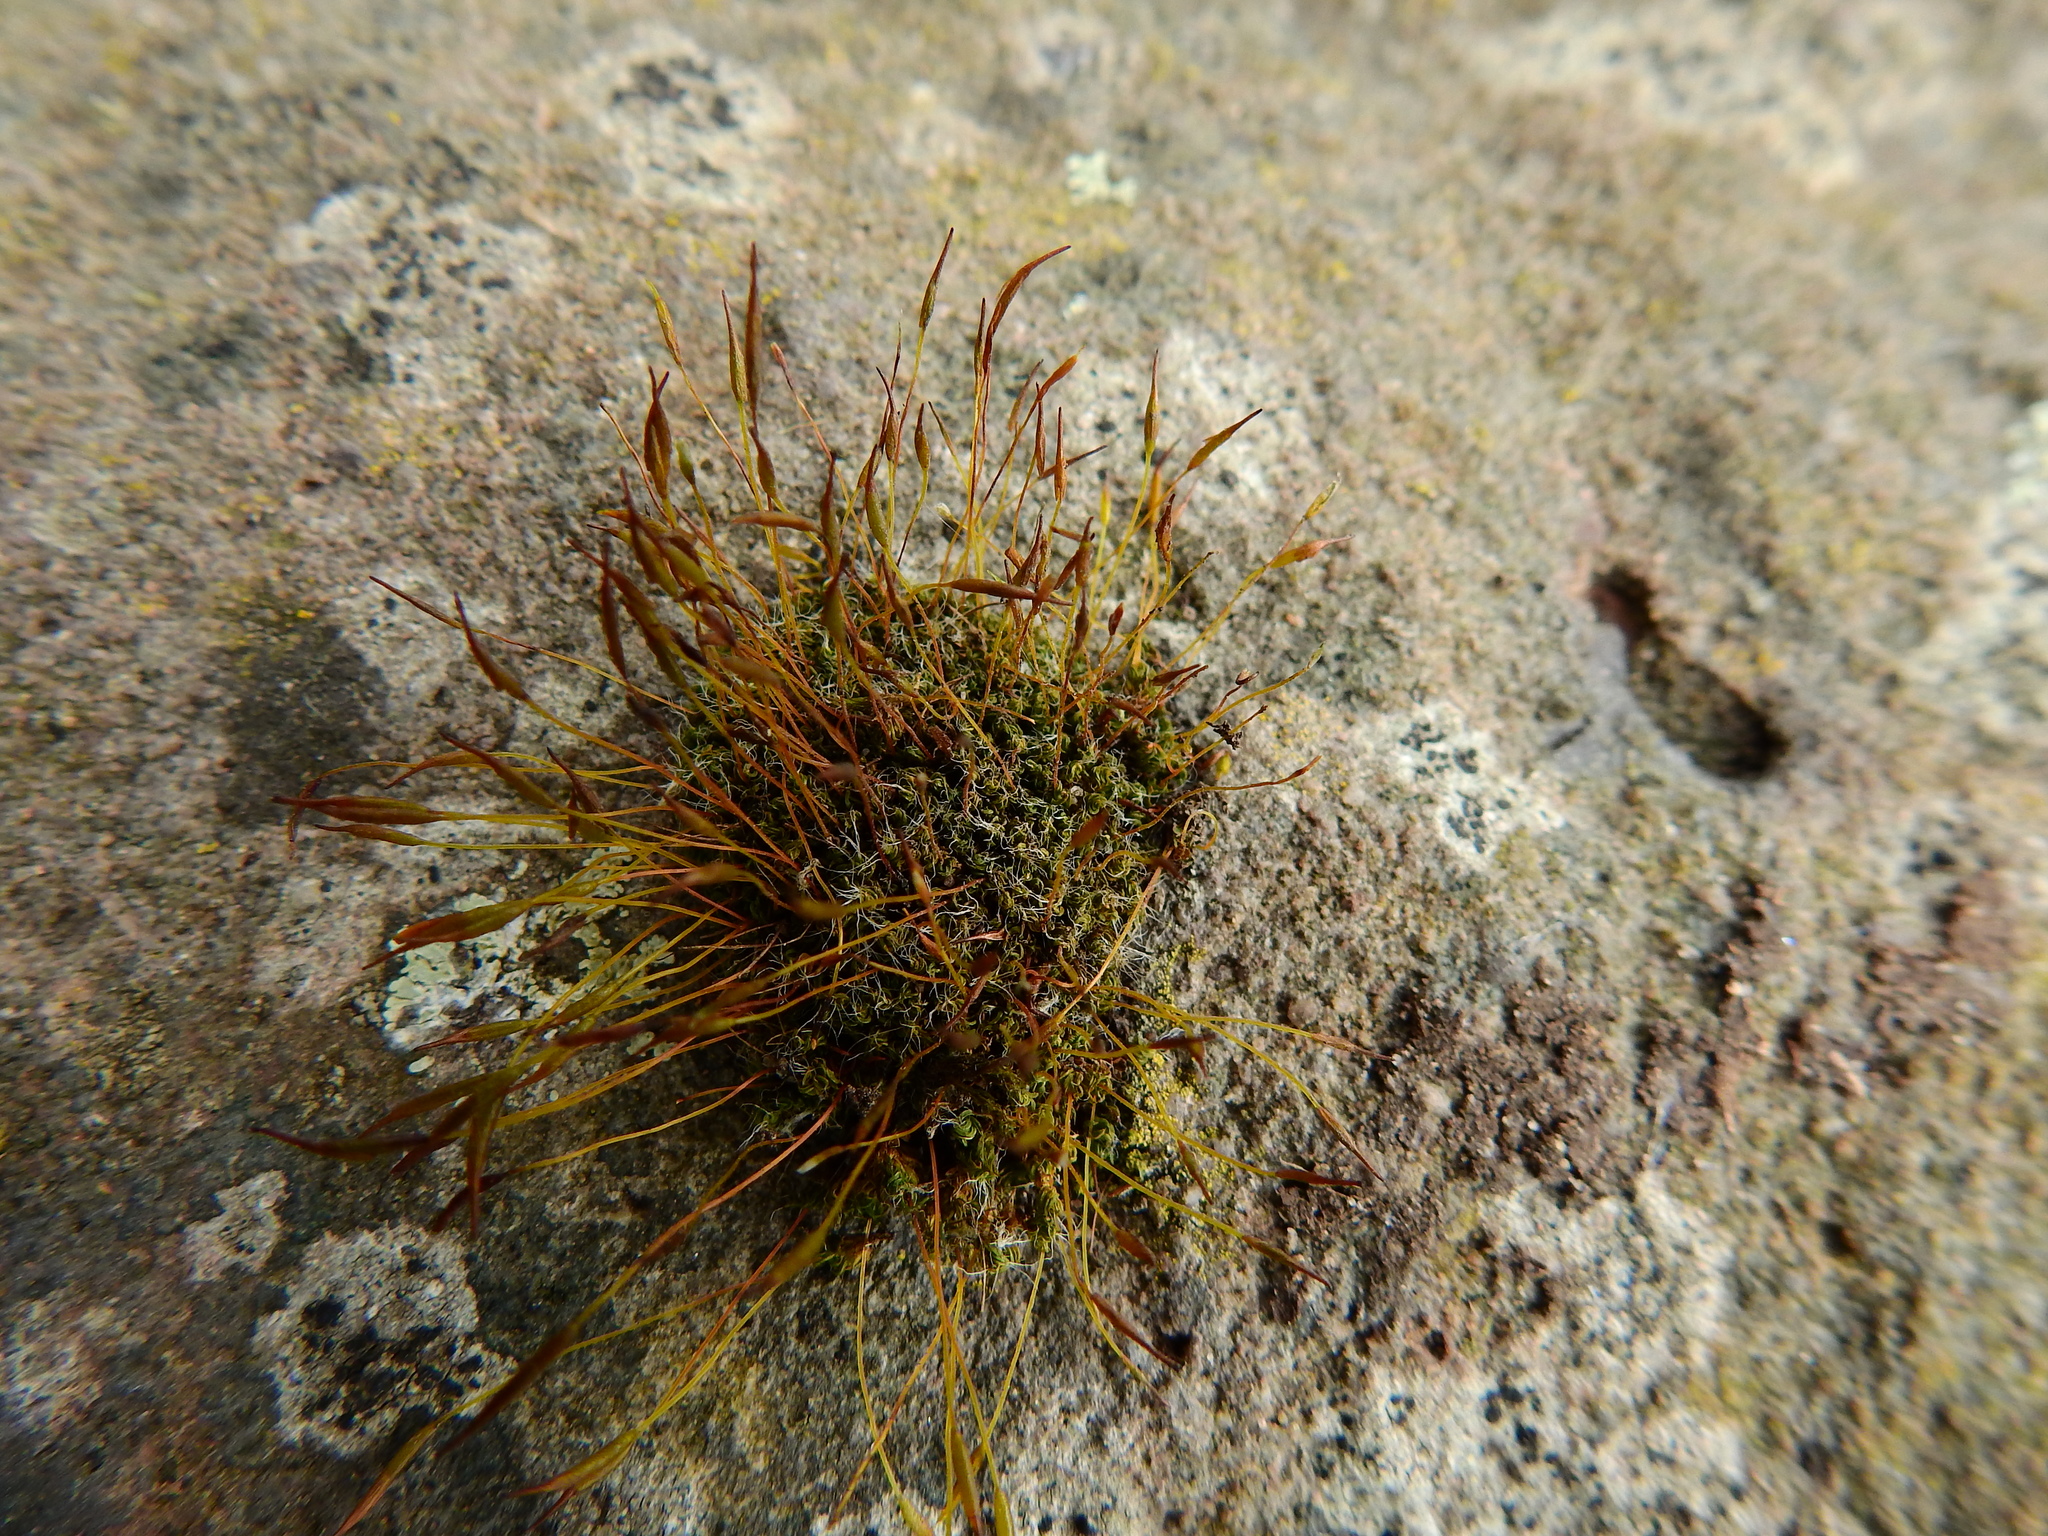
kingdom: Plantae
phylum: Bryophyta
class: Bryopsida
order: Pottiales
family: Pottiaceae
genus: Tortula
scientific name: Tortula muralis
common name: Wall screw-moss
